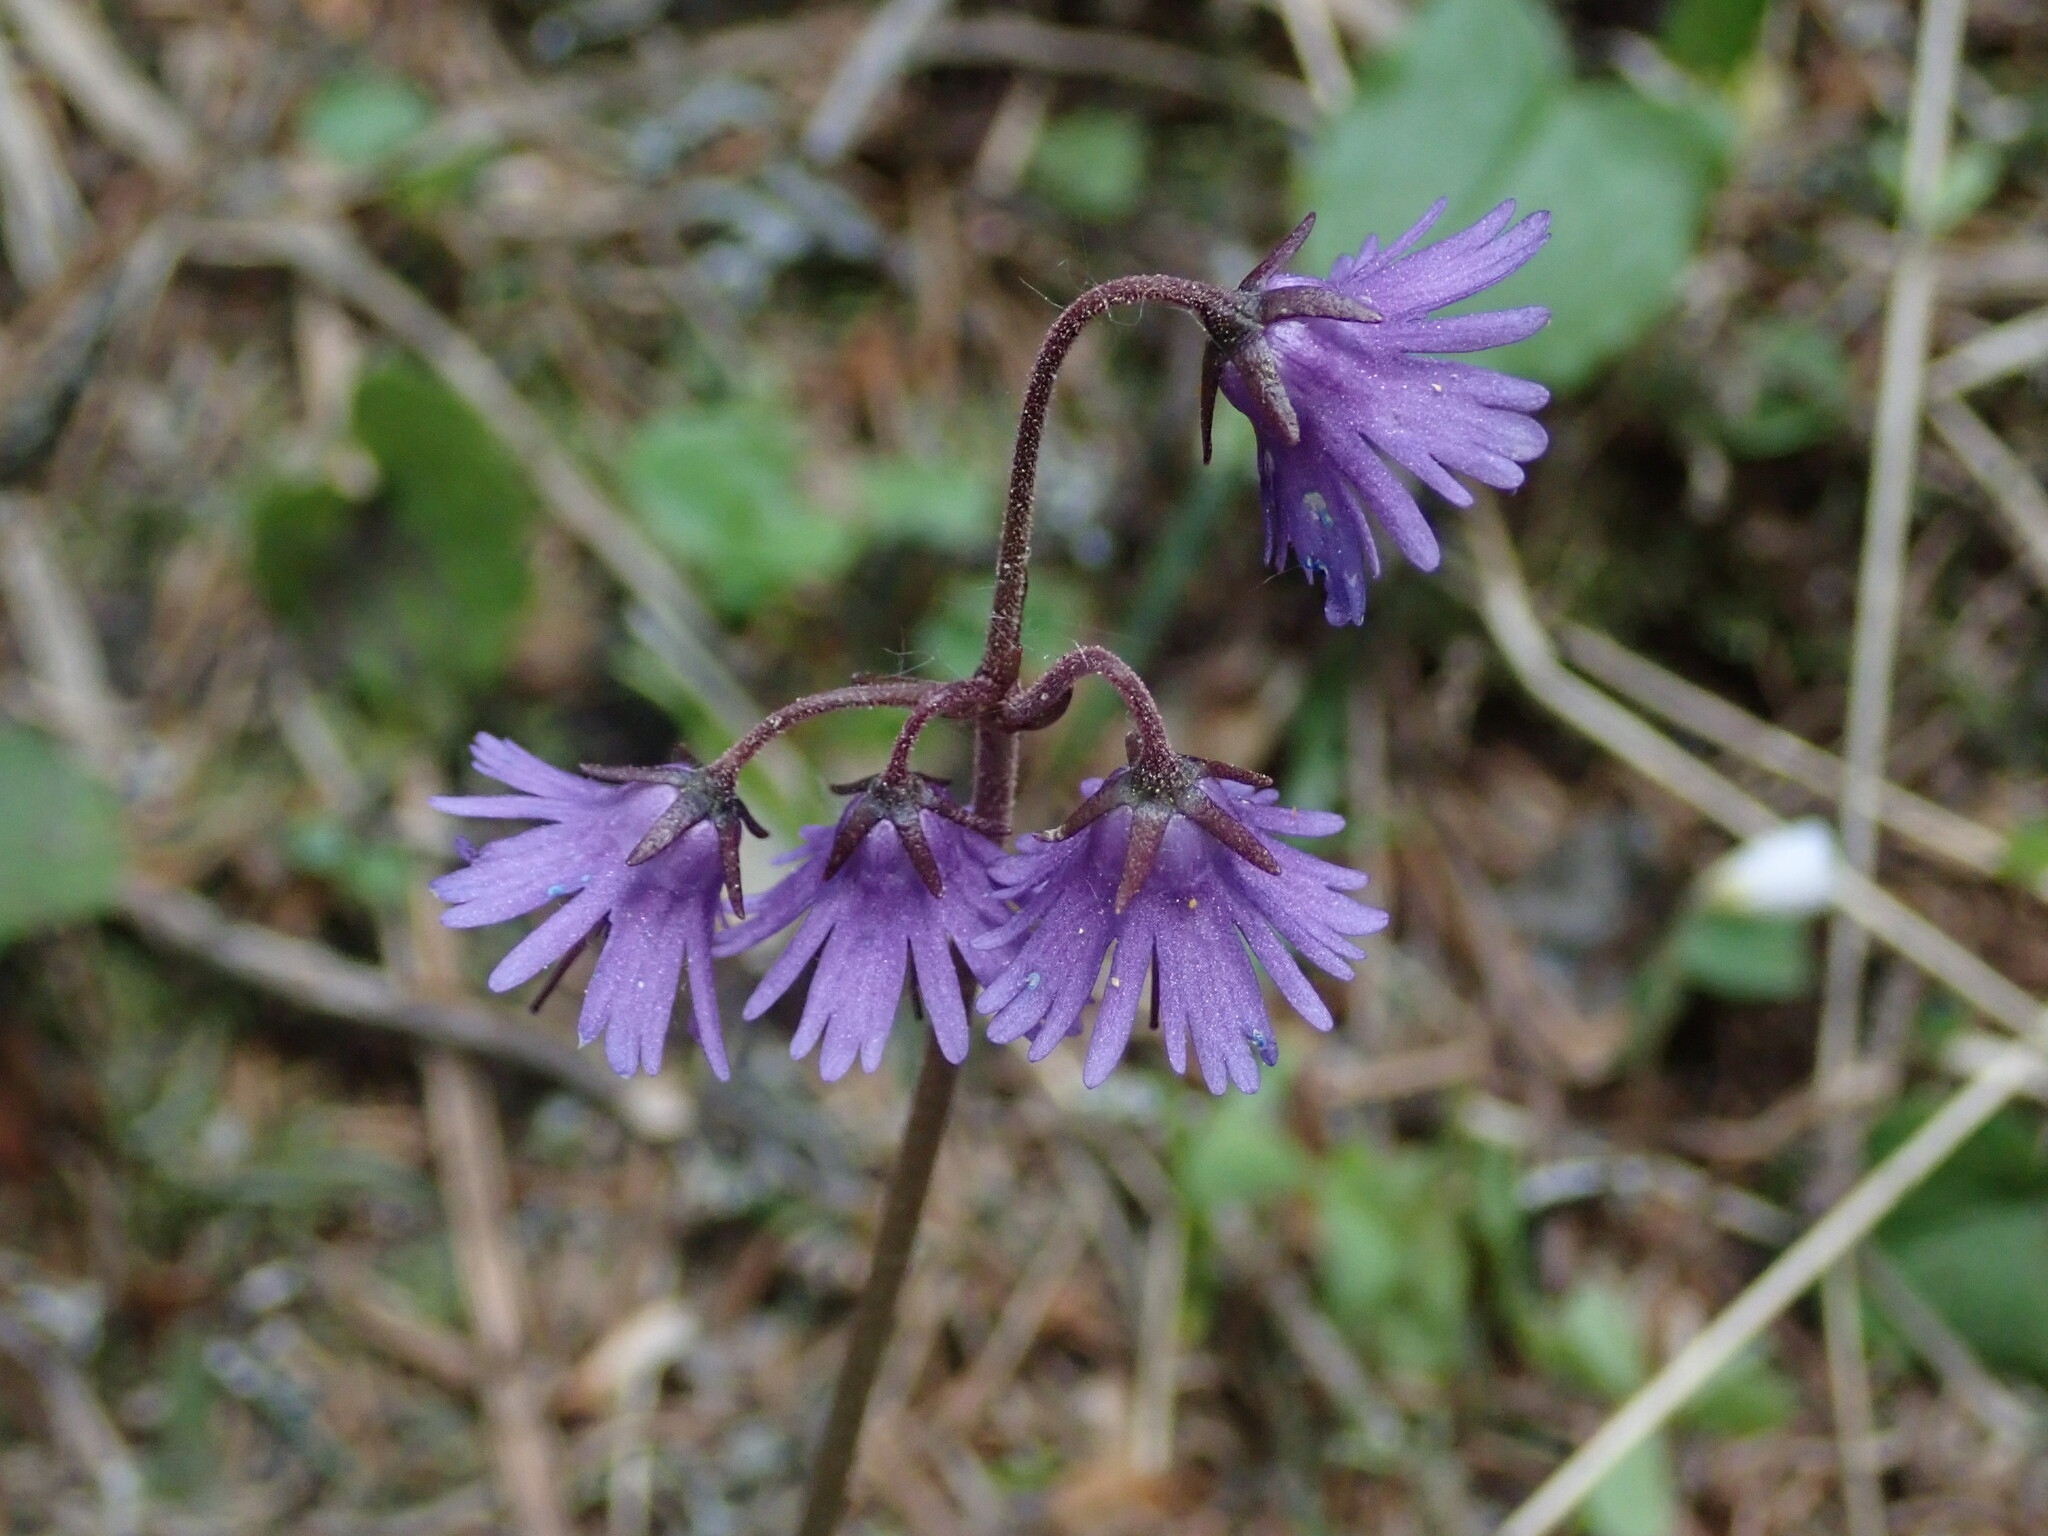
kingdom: Plantae
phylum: Tracheophyta
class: Magnoliopsida
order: Ericales
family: Primulaceae
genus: Soldanella
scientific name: Soldanella carpatica
